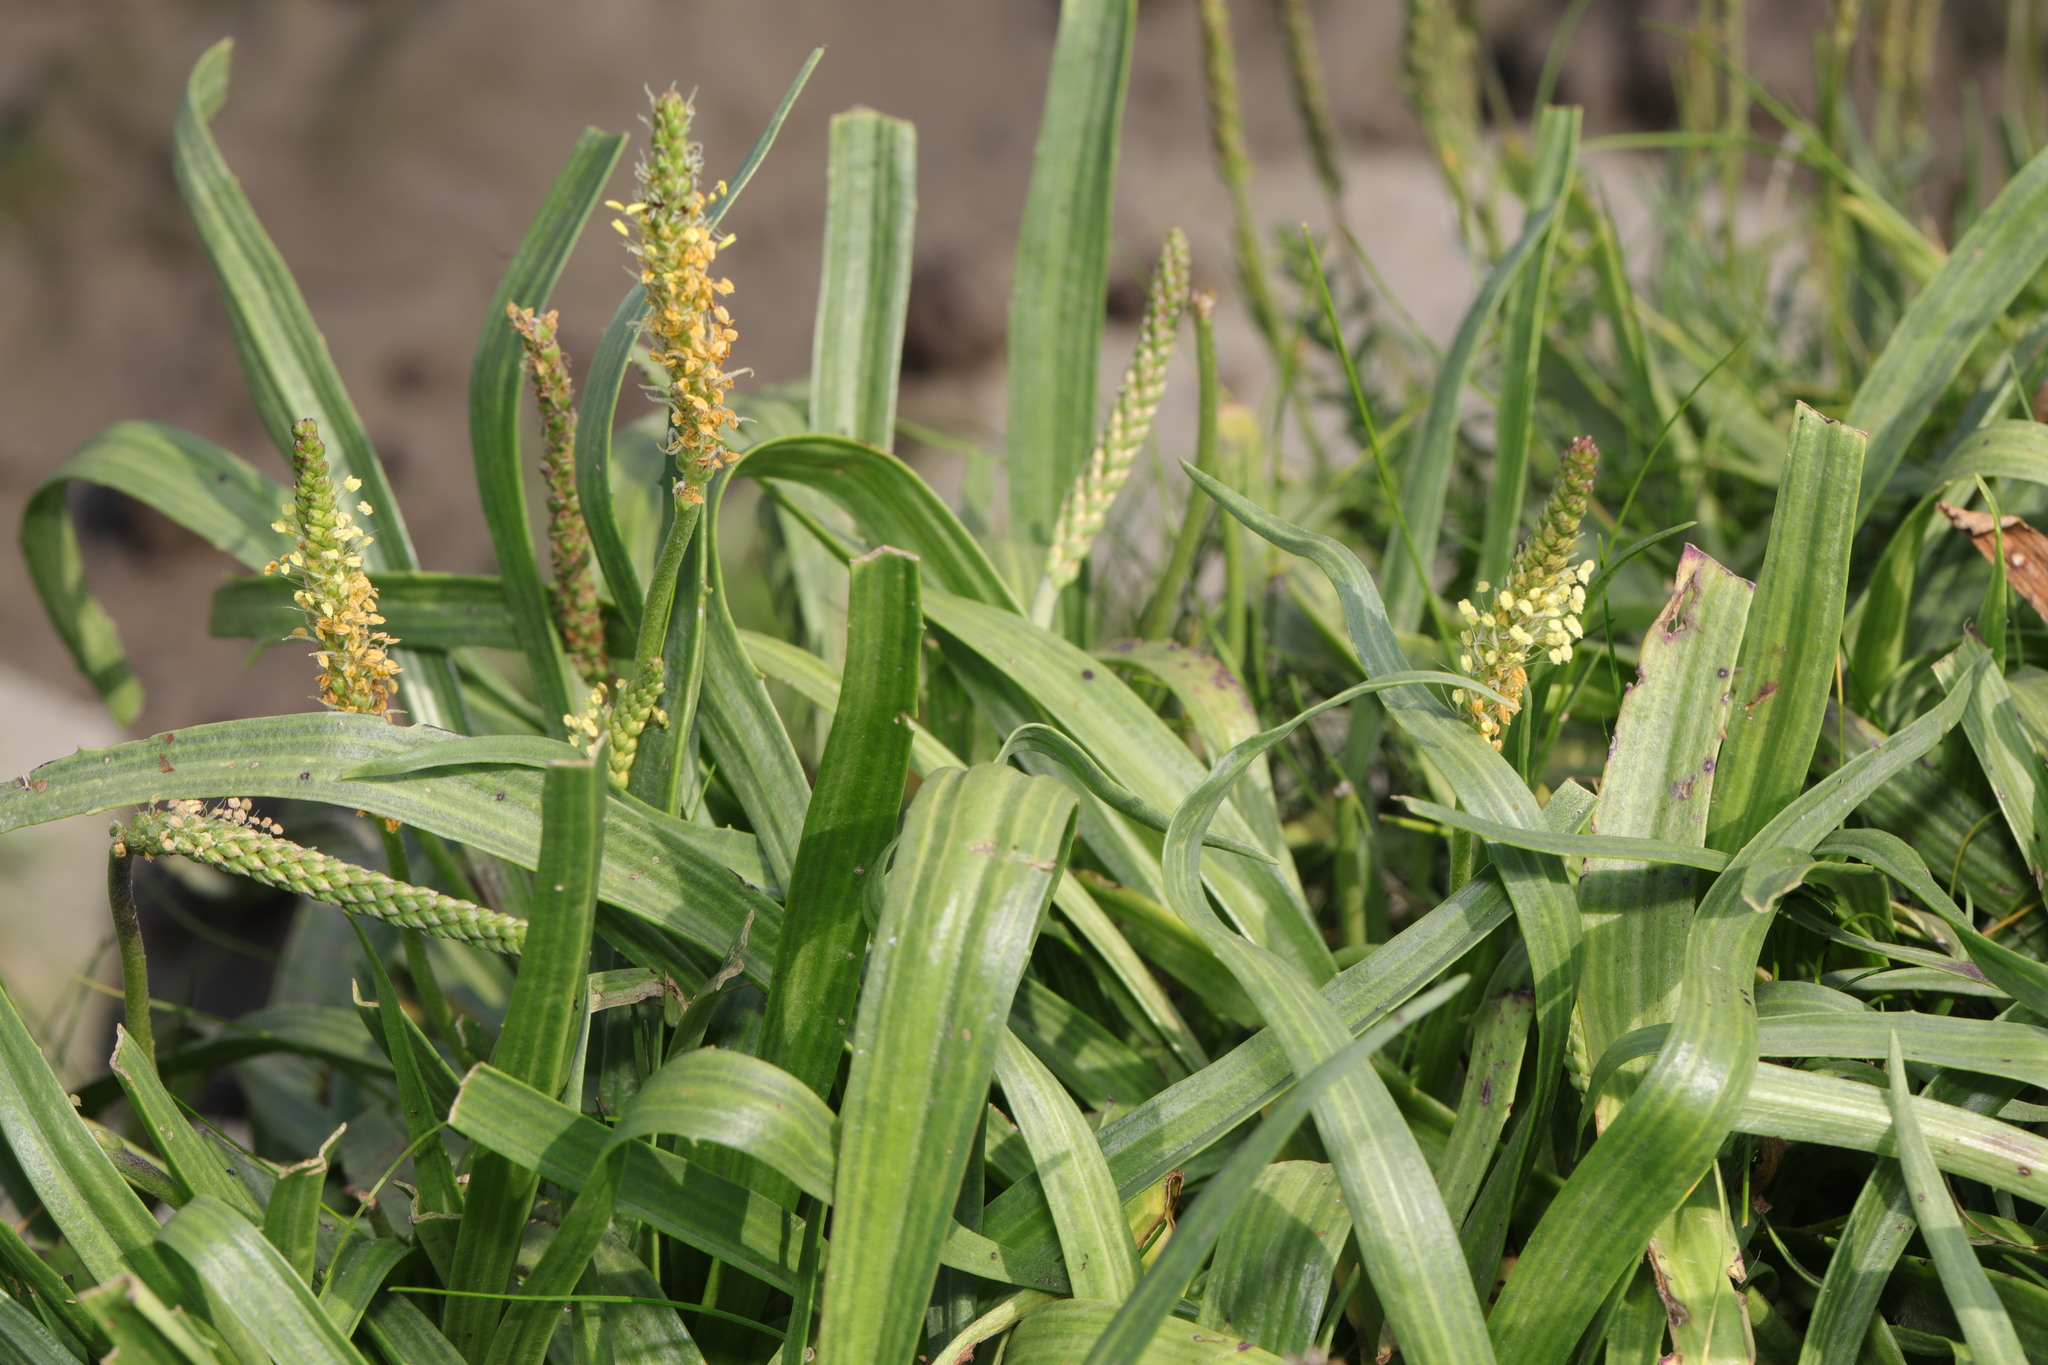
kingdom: Plantae
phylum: Tracheophyta
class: Magnoliopsida
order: Lamiales
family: Plantaginaceae
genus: Plantago
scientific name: Plantago maritima
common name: Sea plantain
